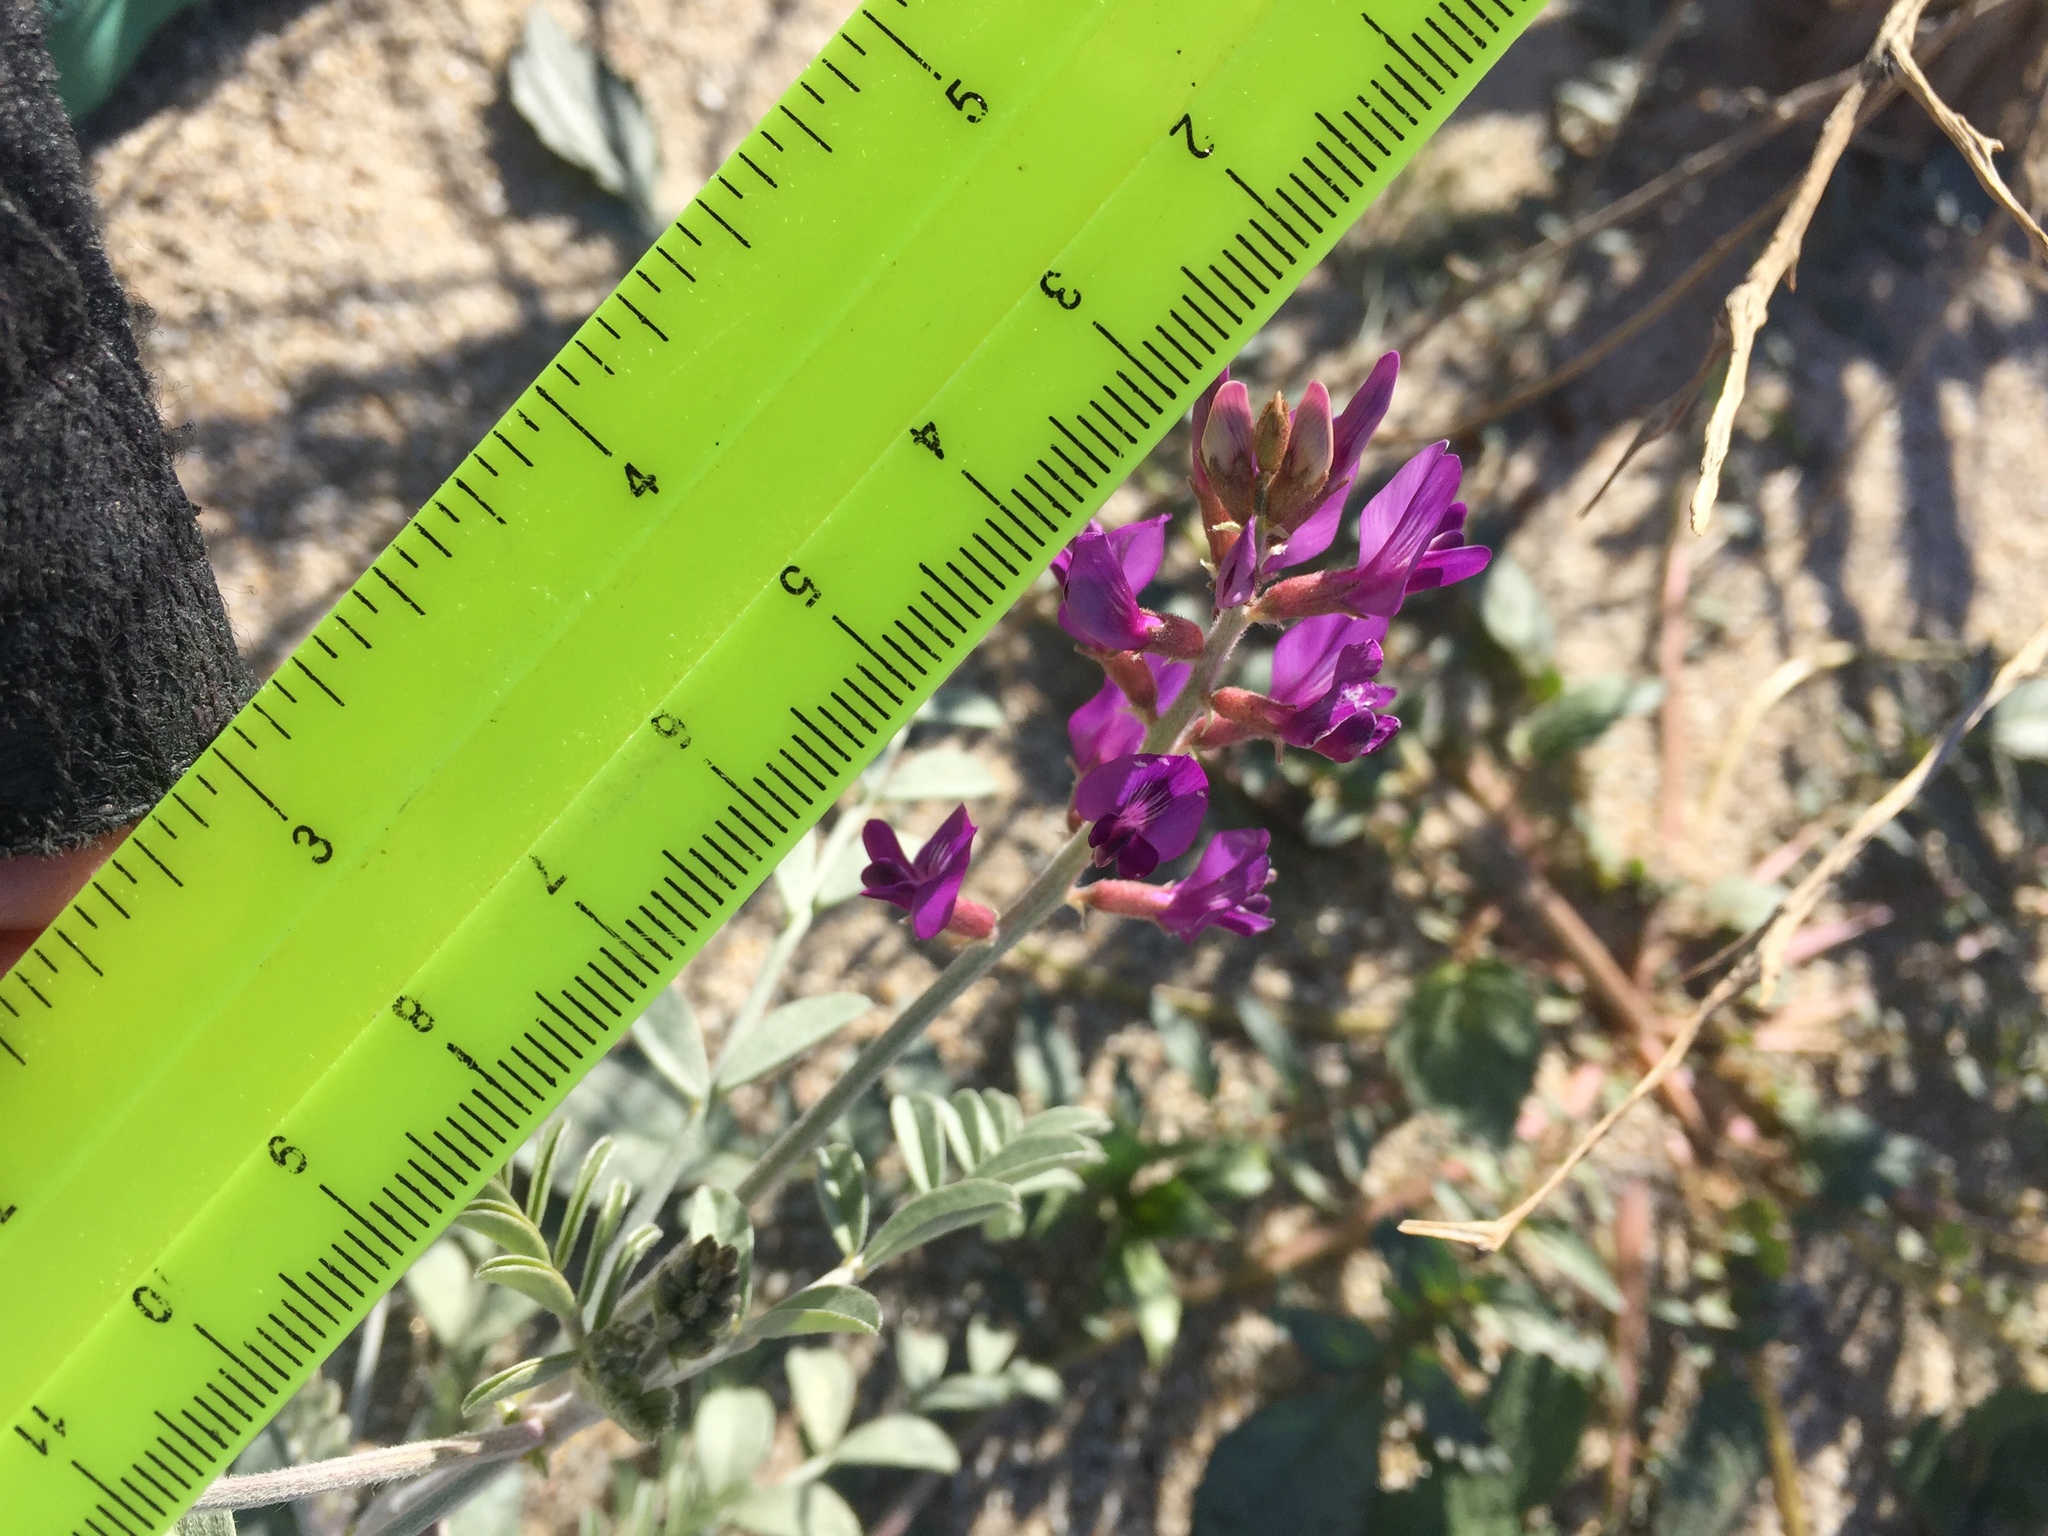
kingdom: Plantae
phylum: Tracheophyta
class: Magnoliopsida
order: Fabales
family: Fabaceae
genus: Astragalus
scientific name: Astragalus lentiginosus
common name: Freckled milkvetch
